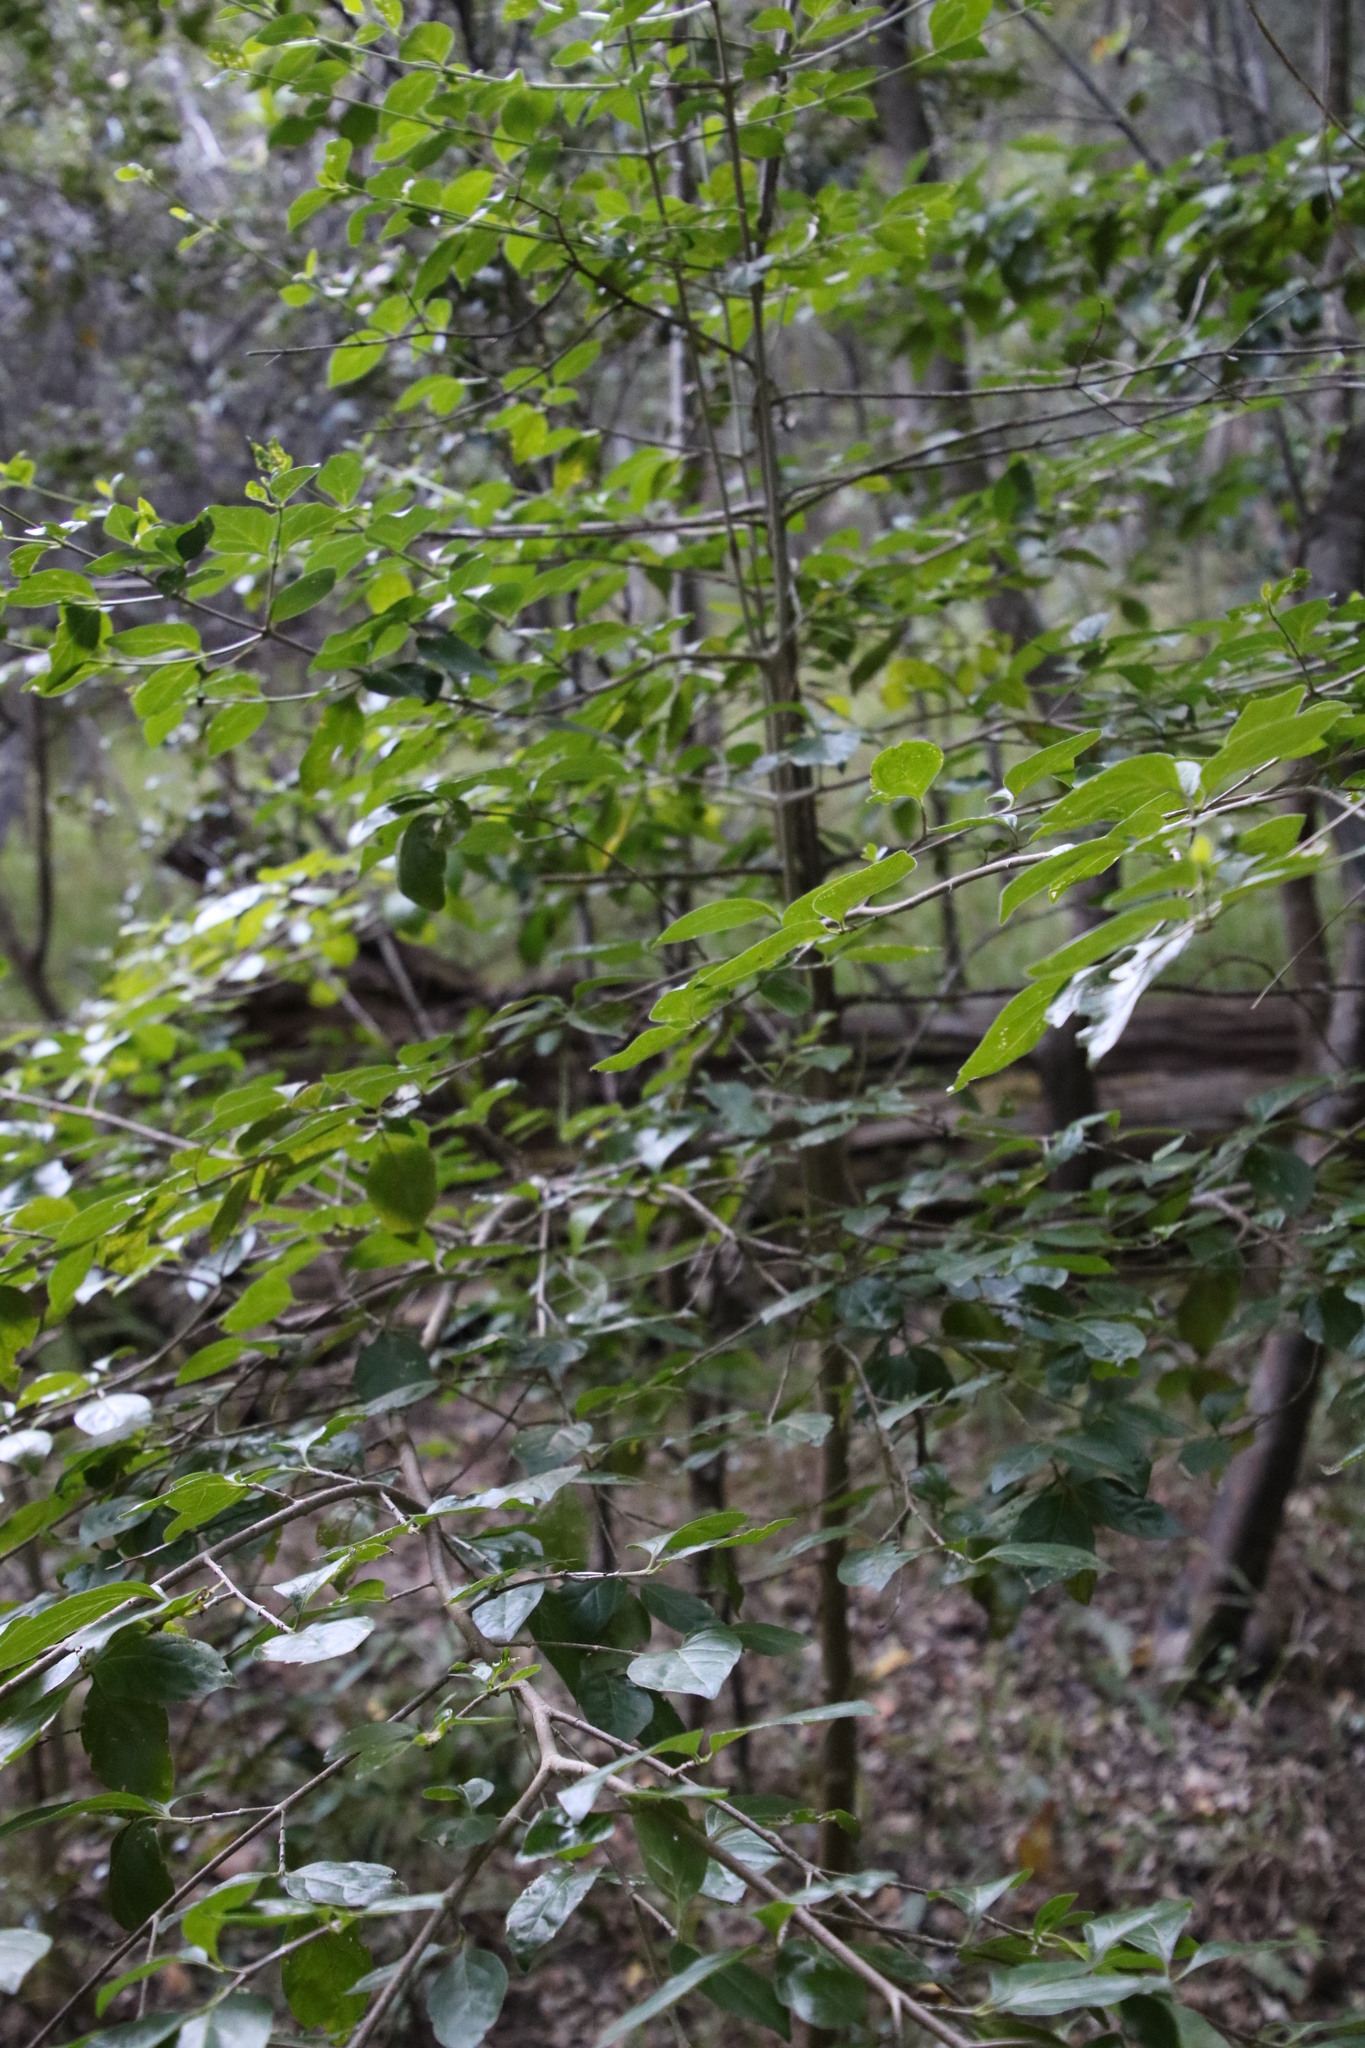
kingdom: Plantae
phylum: Tracheophyta
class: Magnoliopsida
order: Gentianales
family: Rubiaceae
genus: Afrocanthium
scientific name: Afrocanthium mundianum
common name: Rock-alder
